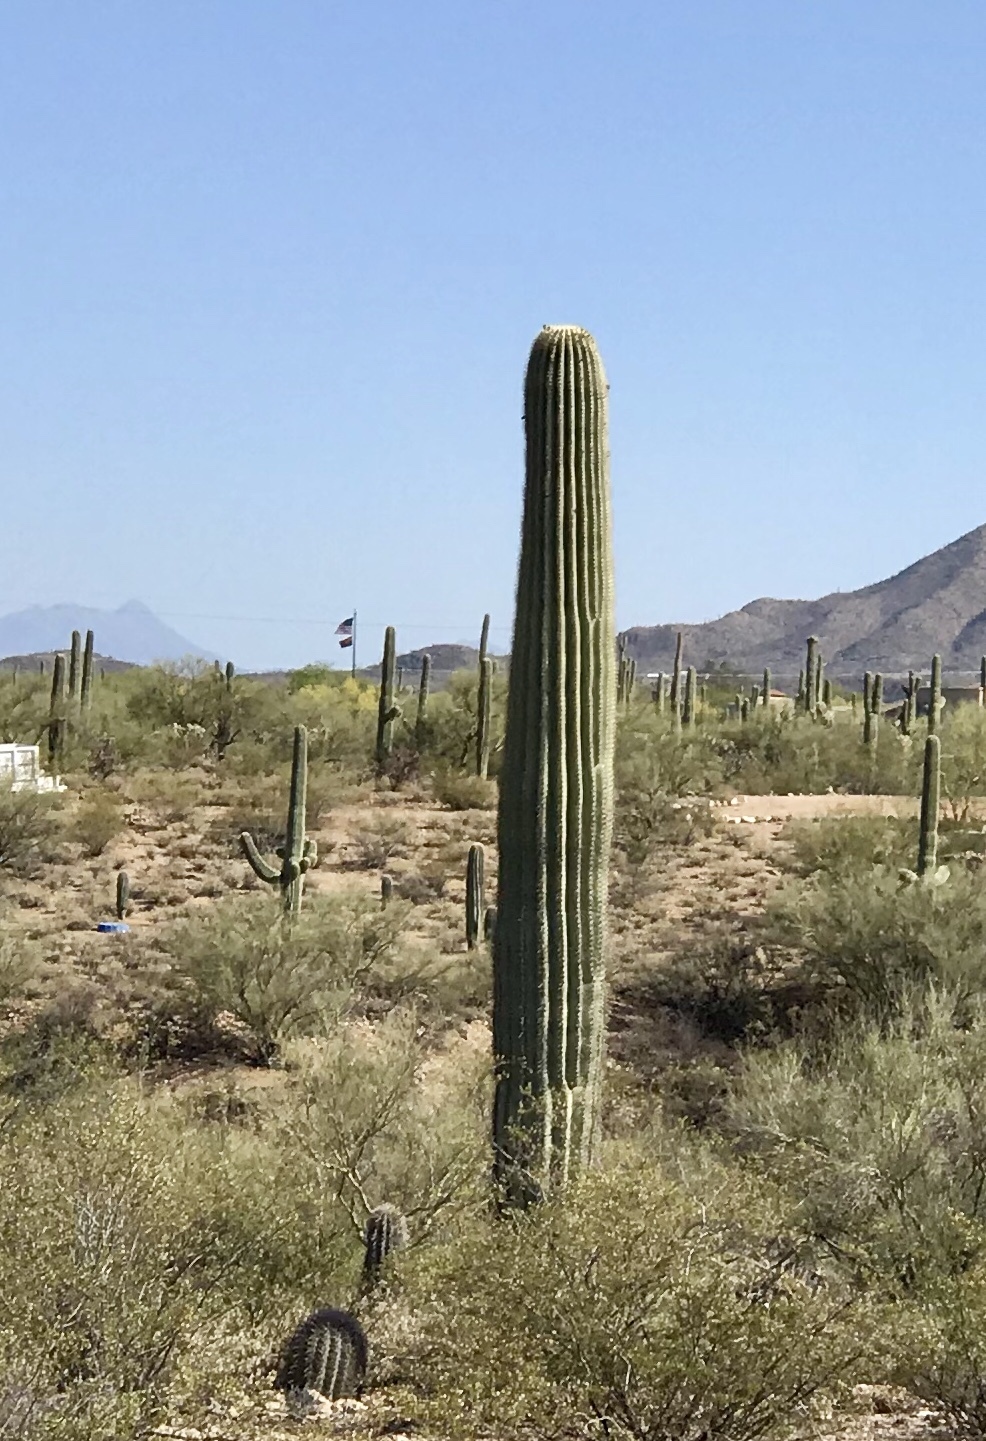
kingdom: Plantae
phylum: Tracheophyta
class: Magnoliopsida
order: Caryophyllales
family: Cactaceae
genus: Carnegiea
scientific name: Carnegiea gigantea
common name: Saguaro
